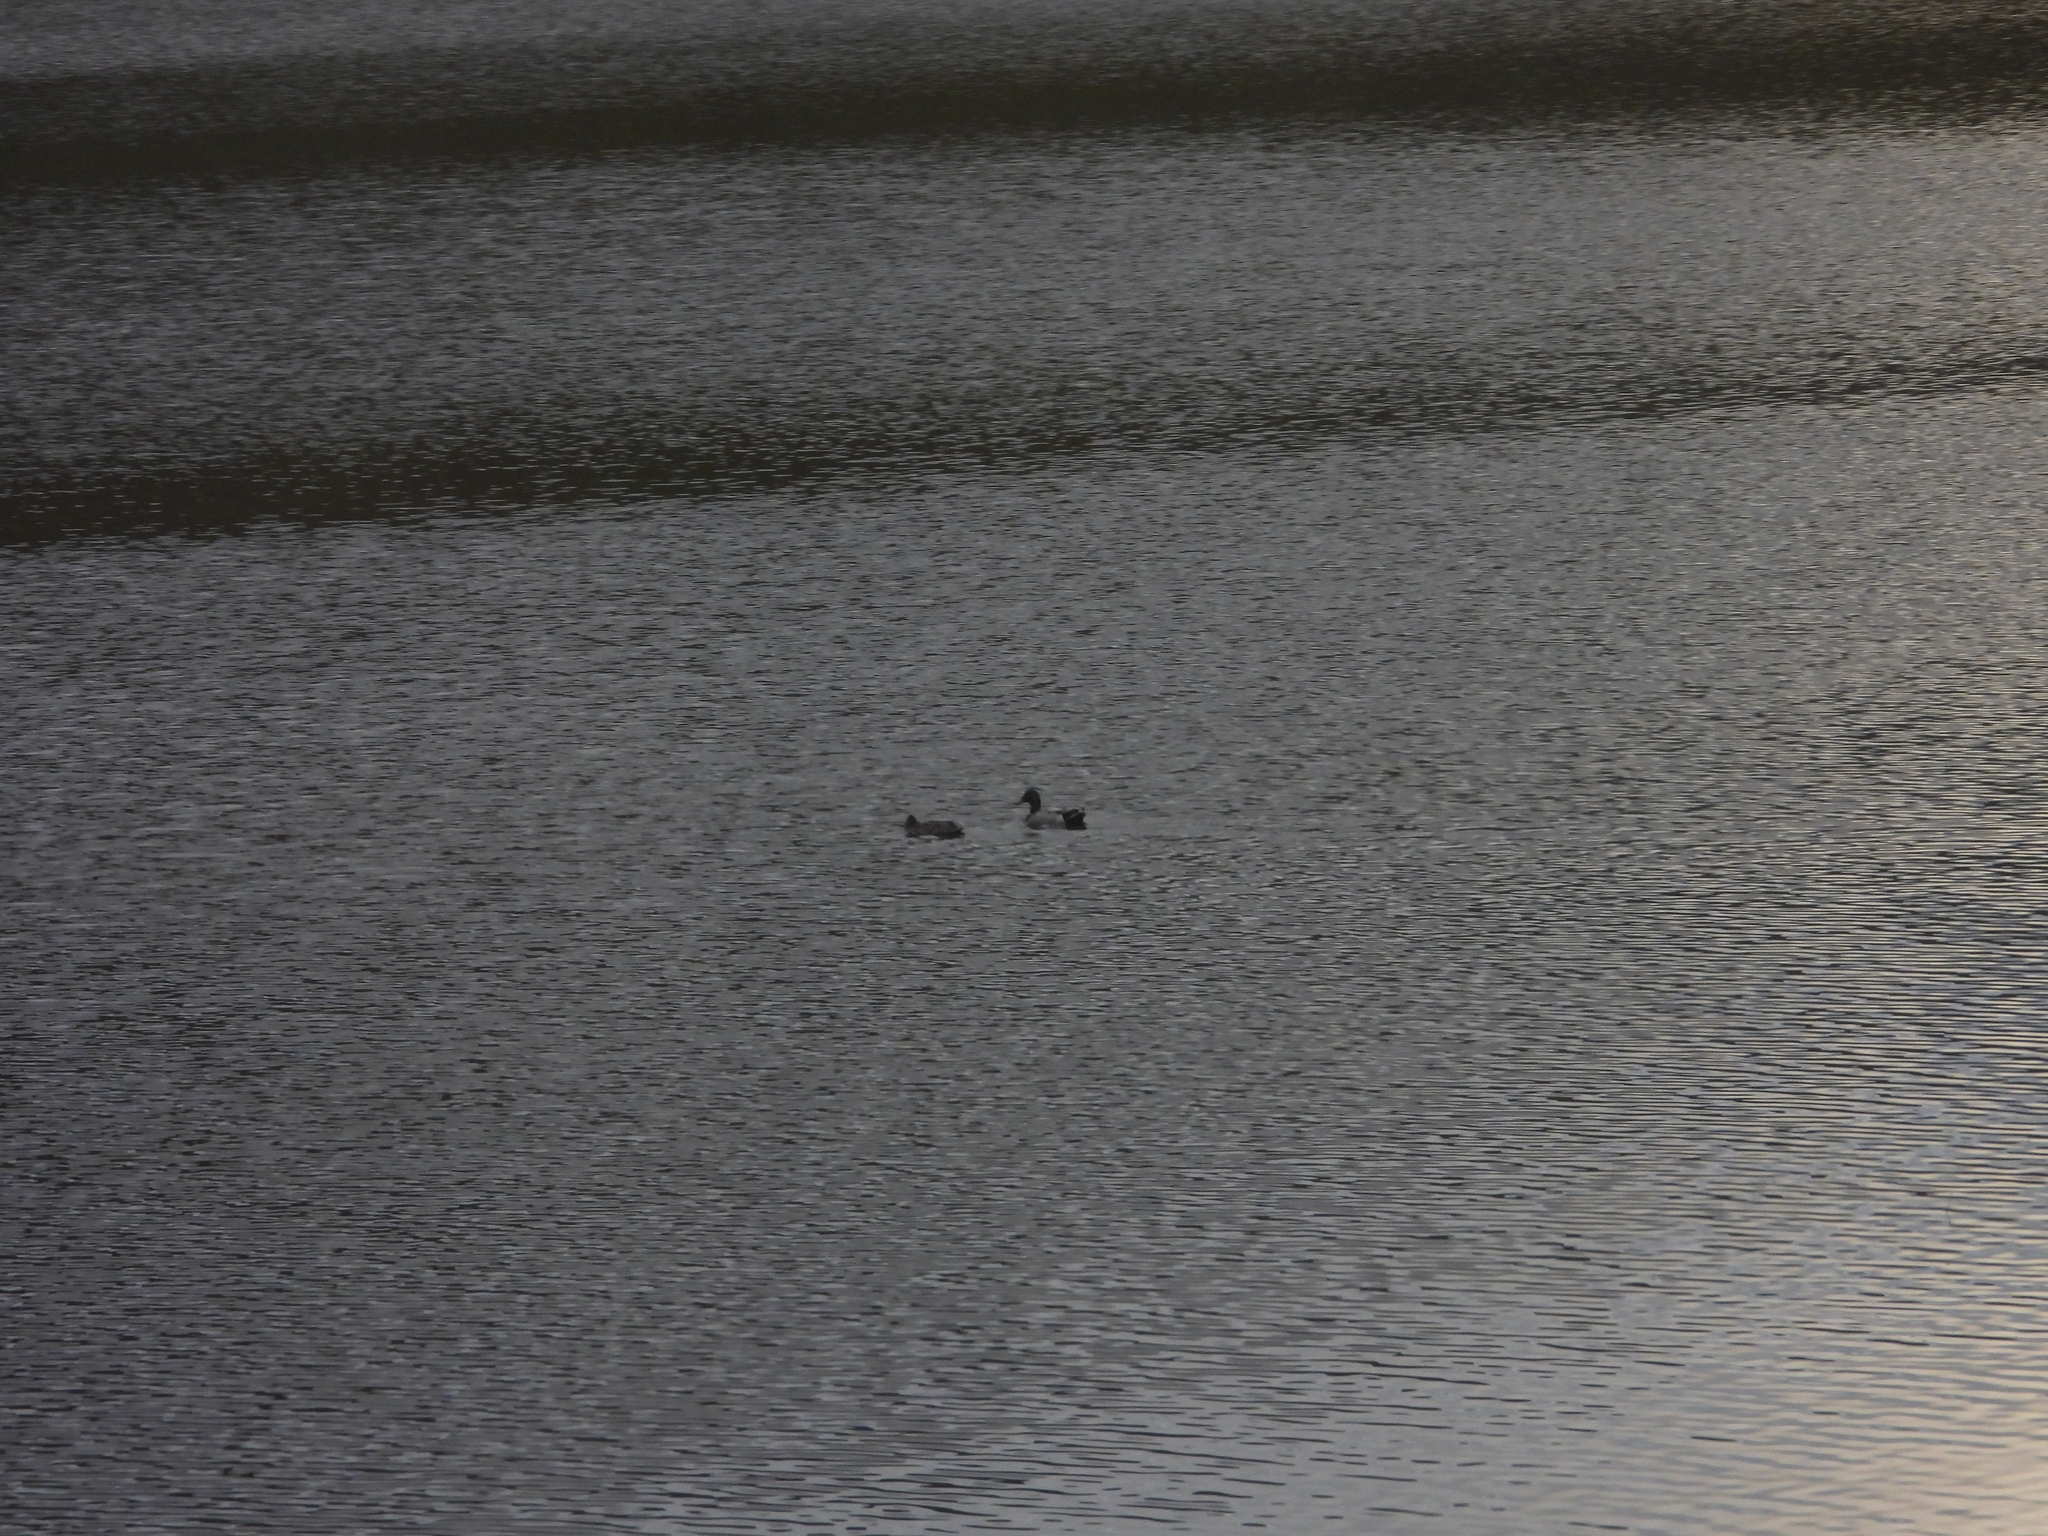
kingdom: Animalia
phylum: Chordata
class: Aves
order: Anseriformes
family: Anatidae
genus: Anas
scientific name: Anas platyrhynchos
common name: Mallard
